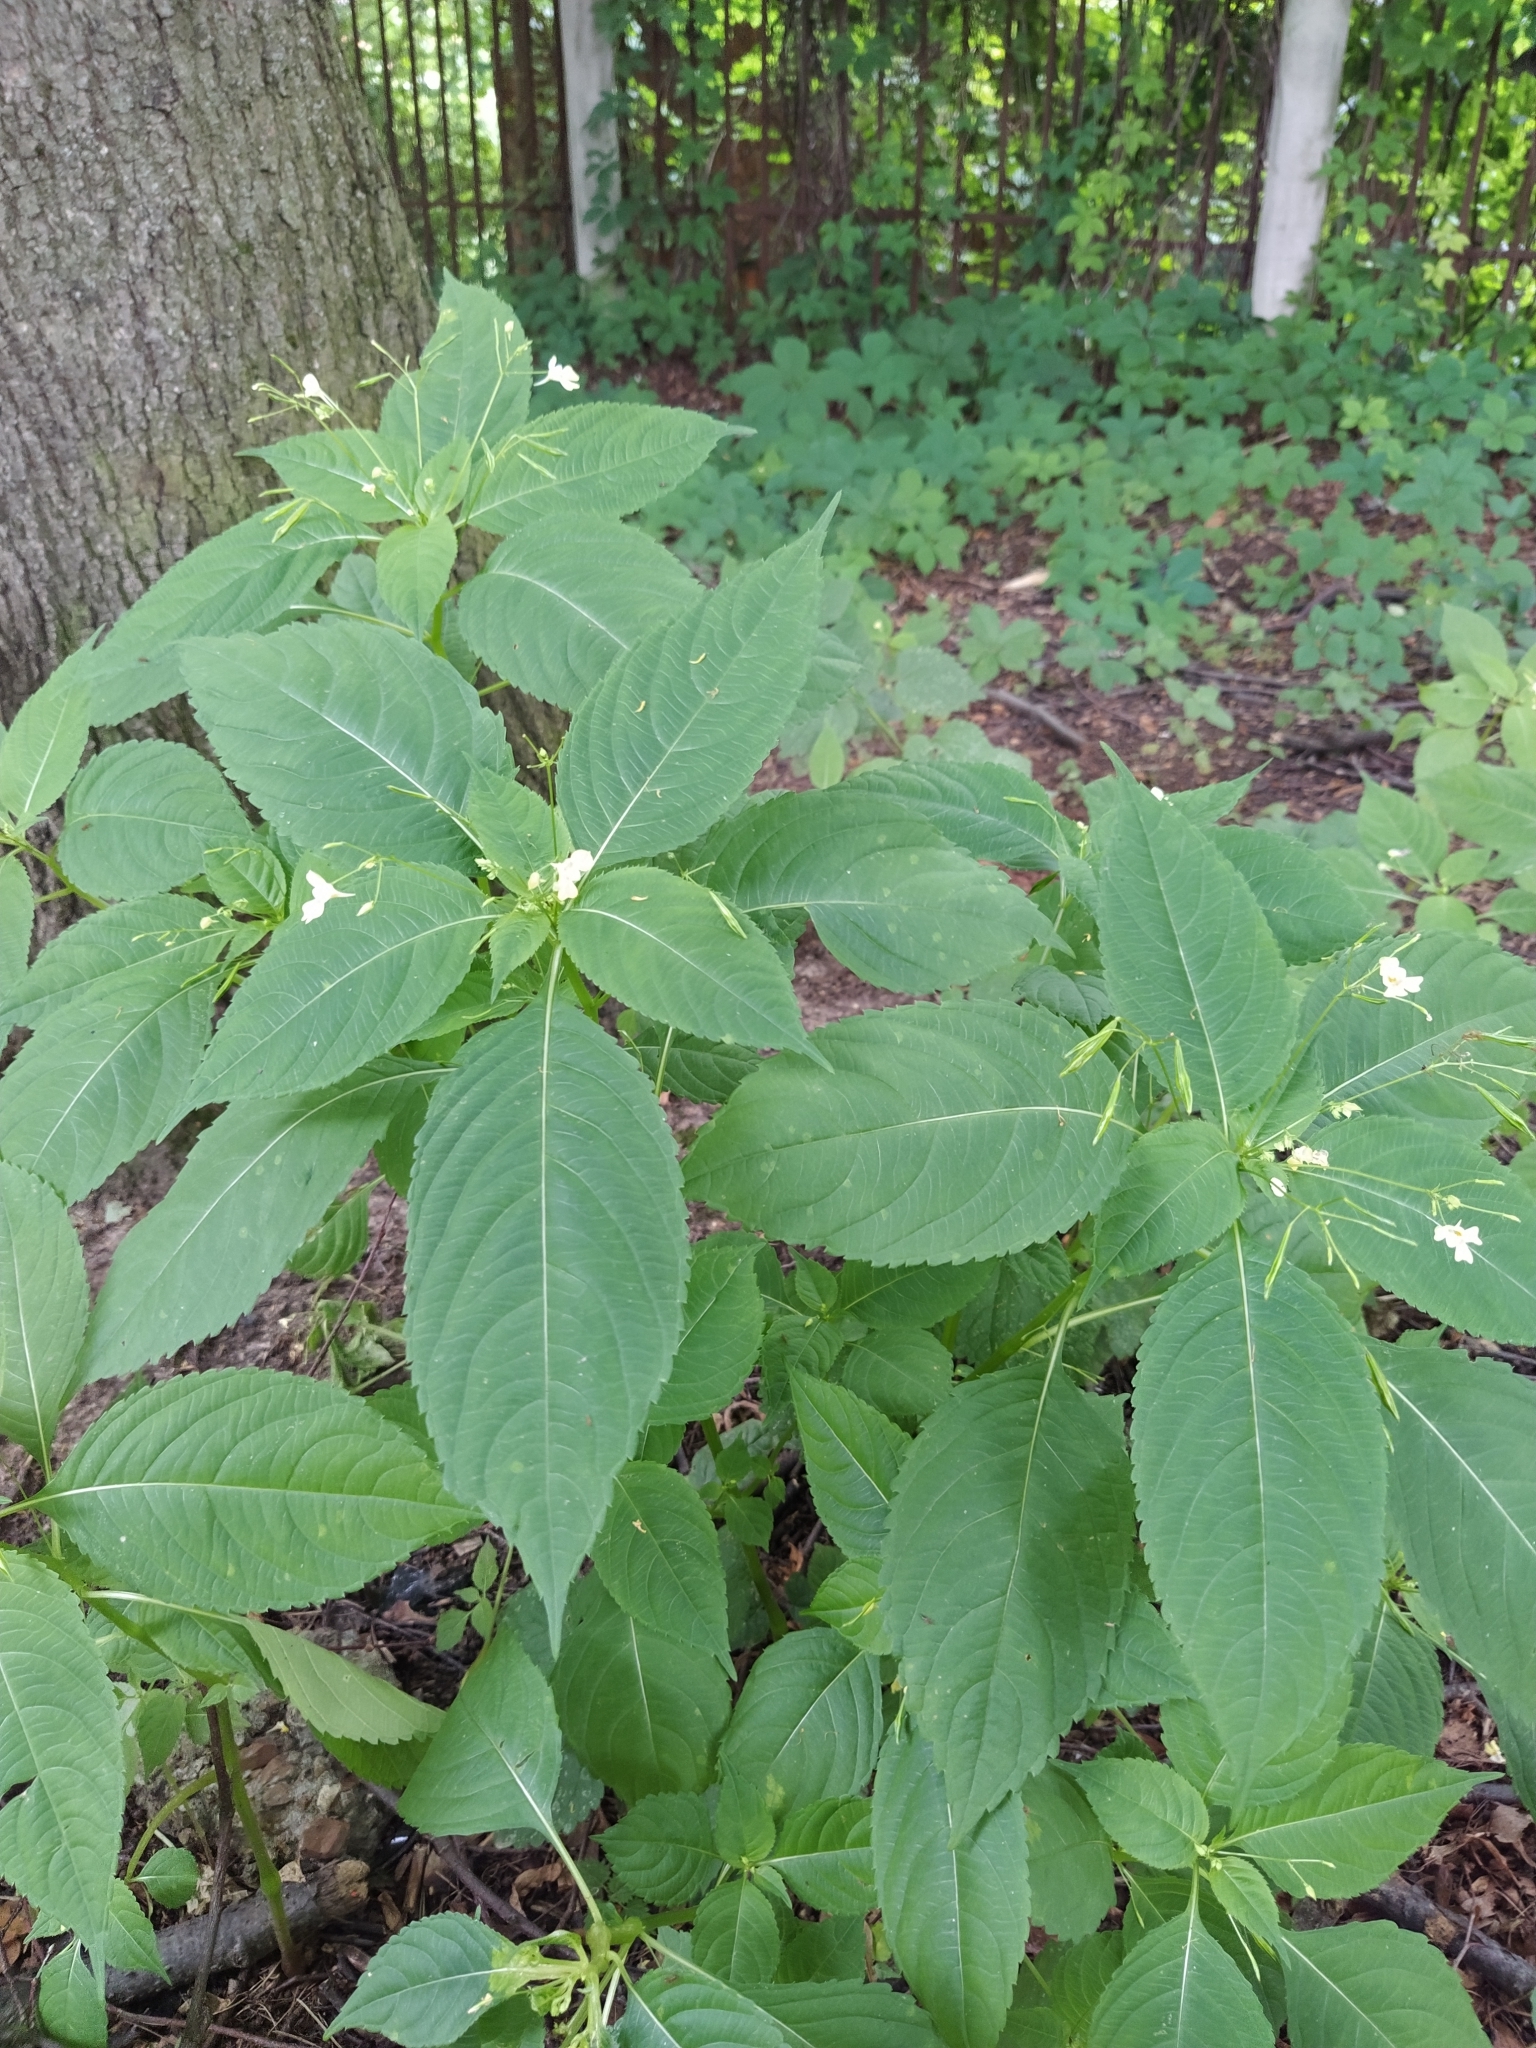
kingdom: Plantae
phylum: Tracheophyta
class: Magnoliopsida
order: Ericales
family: Balsaminaceae
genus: Impatiens
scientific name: Impatiens parviflora
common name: Small balsam
